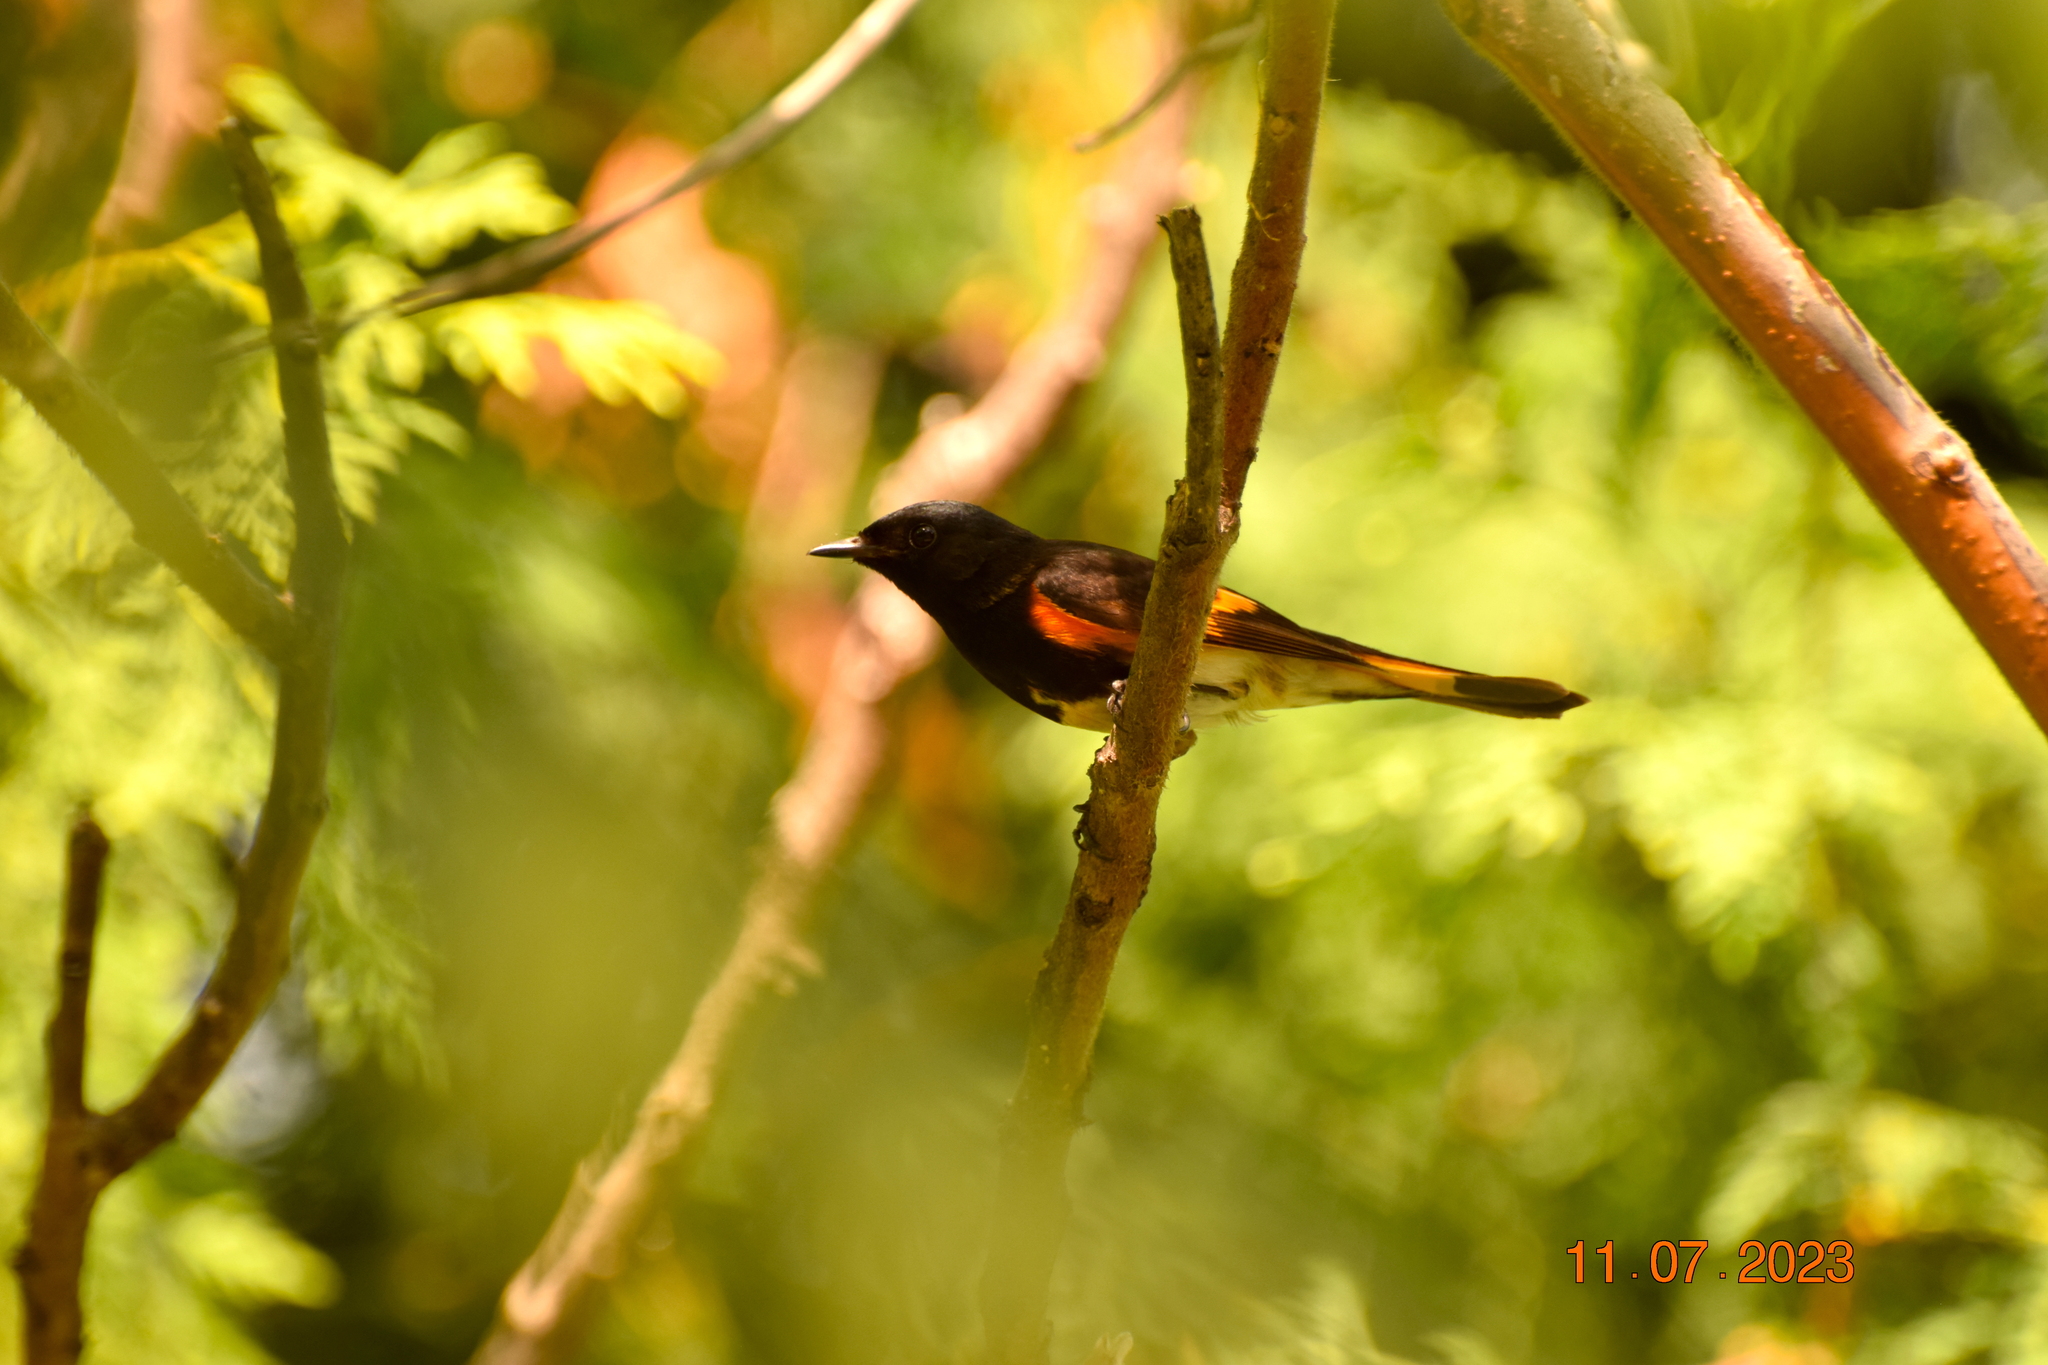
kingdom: Animalia
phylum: Chordata
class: Aves
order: Passeriformes
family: Parulidae
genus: Setophaga
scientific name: Setophaga ruticilla
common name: American redstart
